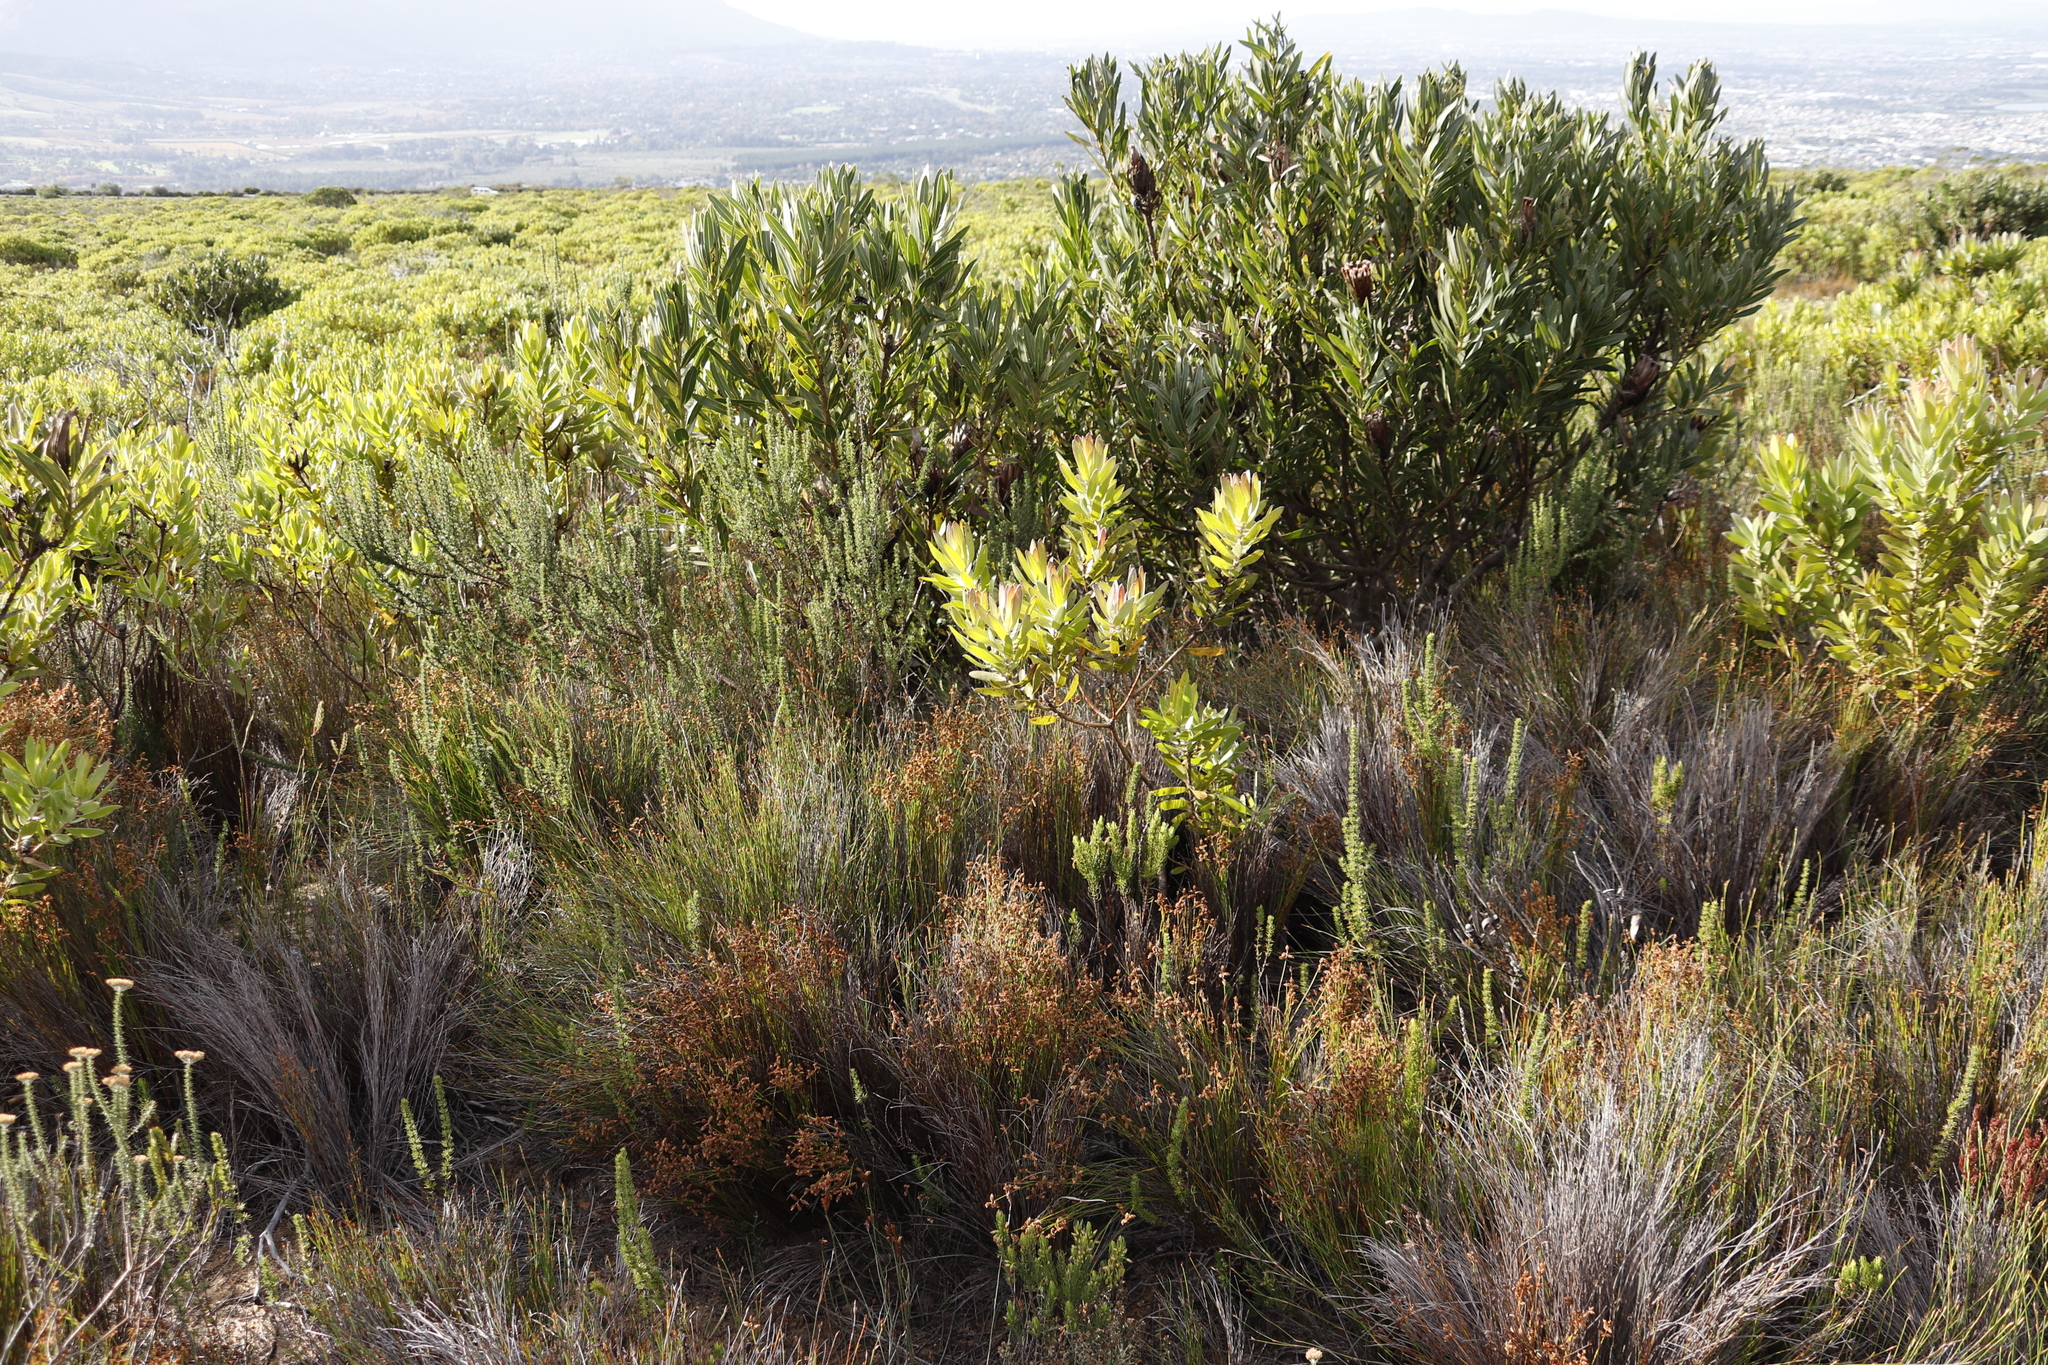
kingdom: Plantae
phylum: Tracheophyta
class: Liliopsida
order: Poales
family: Restionaceae
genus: Mastersiella
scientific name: Mastersiella digitata
